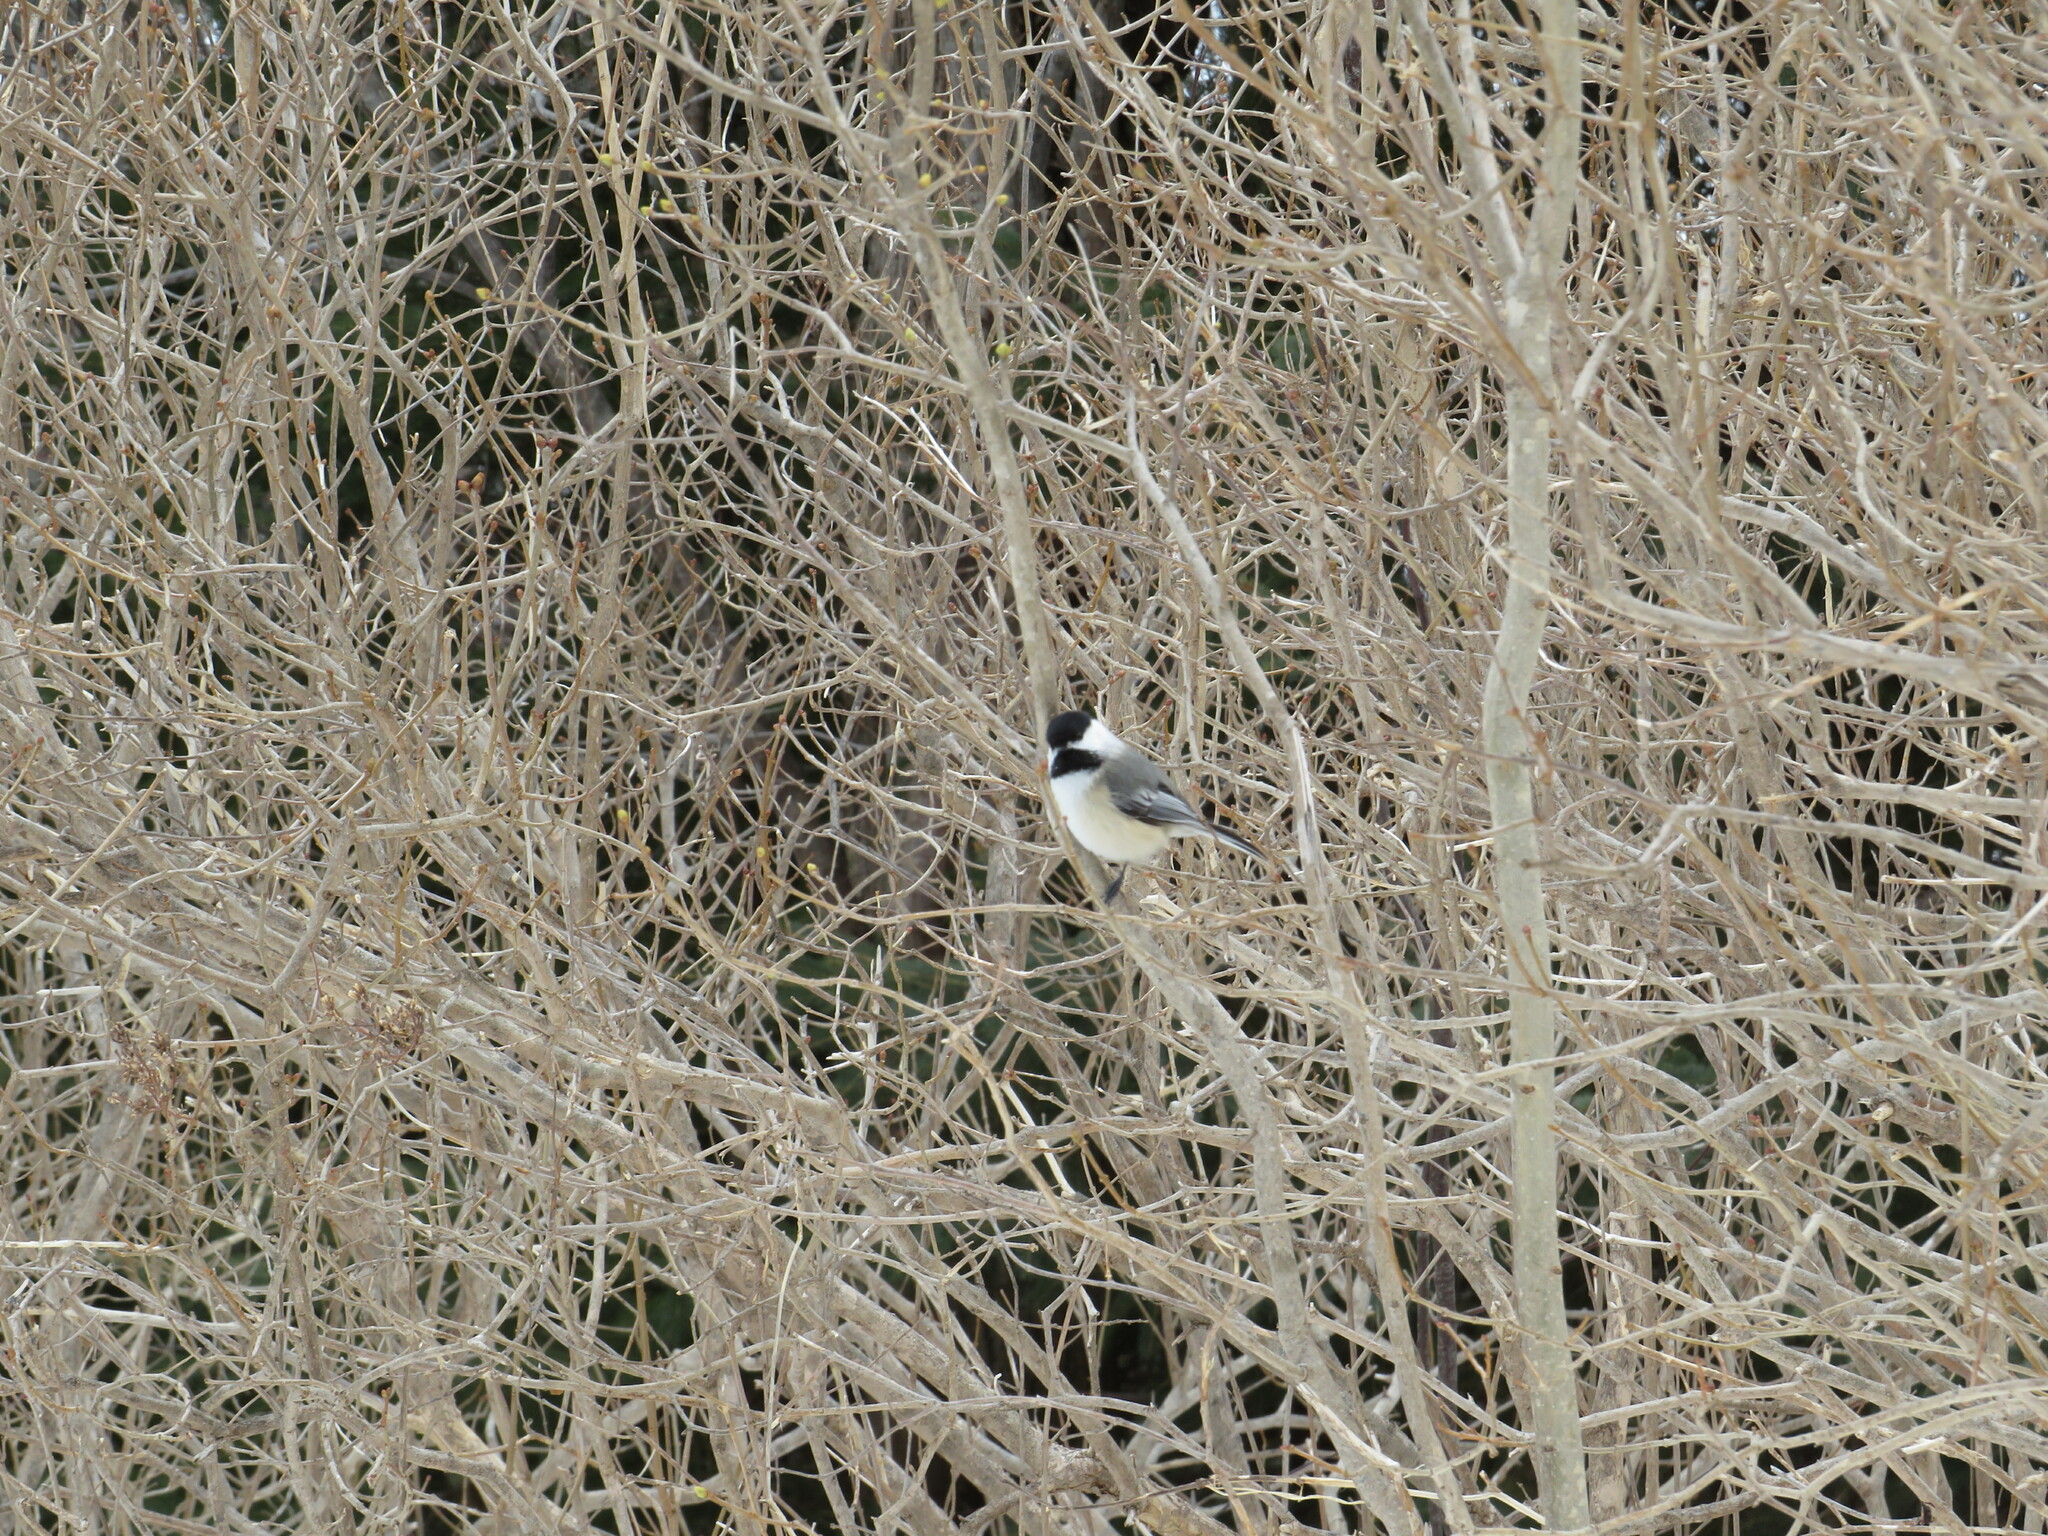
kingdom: Animalia
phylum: Chordata
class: Aves
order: Passeriformes
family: Paridae
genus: Poecile
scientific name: Poecile atricapillus
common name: Black-capped chickadee
